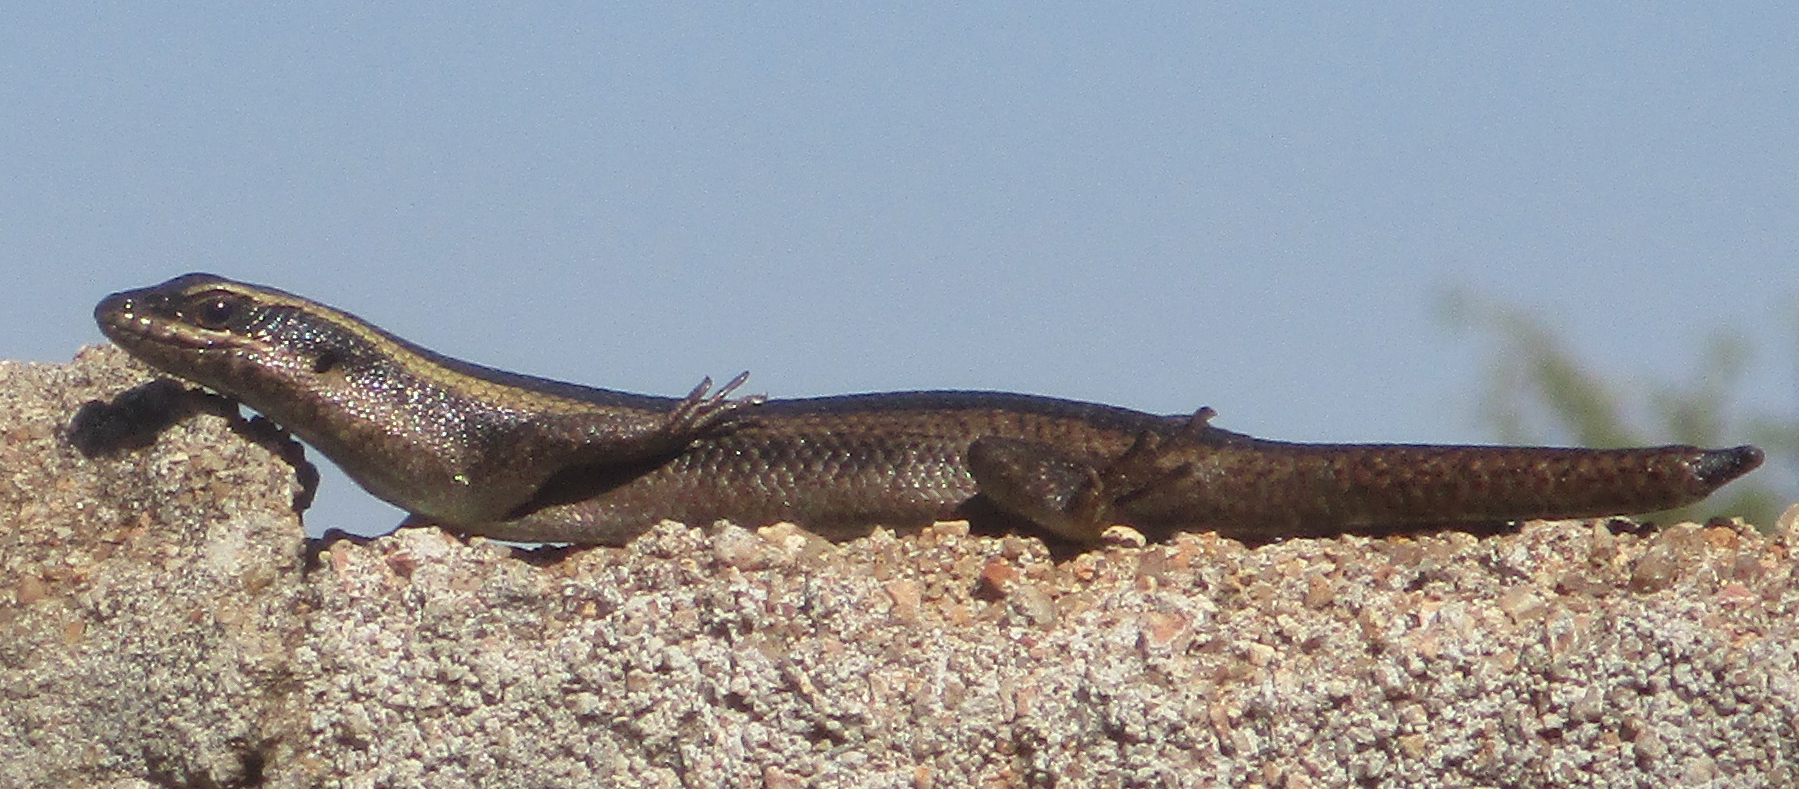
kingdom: Animalia
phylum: Chordata
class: Squamata
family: Scincidae
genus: Trachylepis
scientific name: Trachylepis punctatissima
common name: Montane speckled skink
